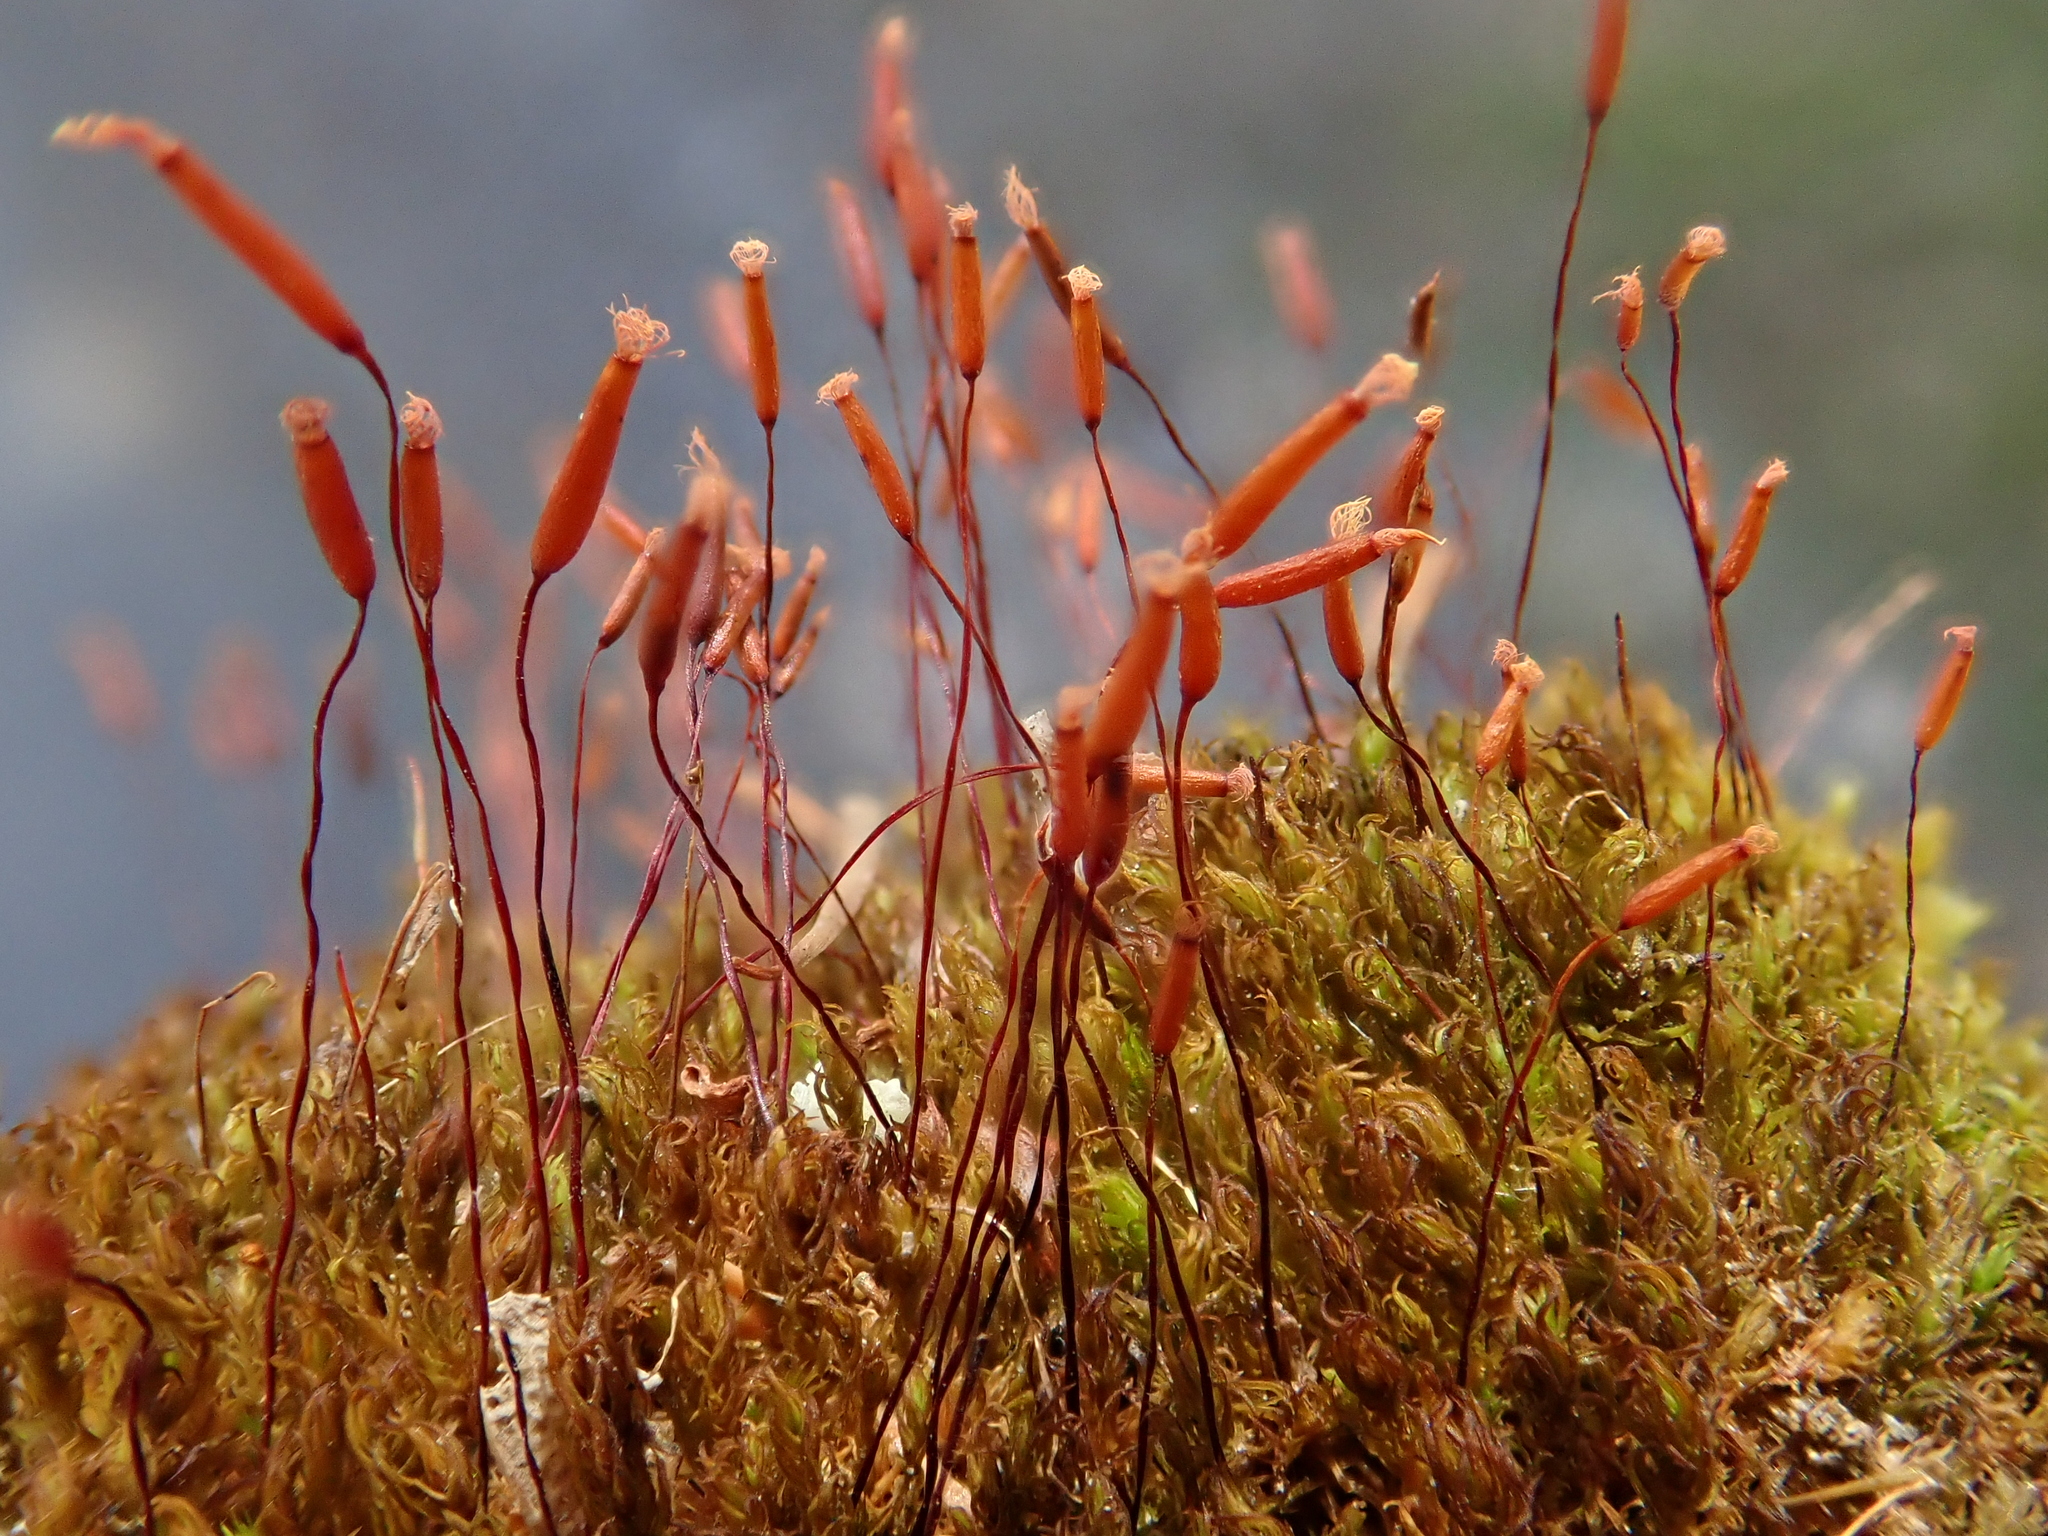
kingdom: Plantae
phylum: Bryophyta
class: Bryopsida
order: Pottiales
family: Pottiaceae
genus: Geheebia
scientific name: Geheebia fallax
